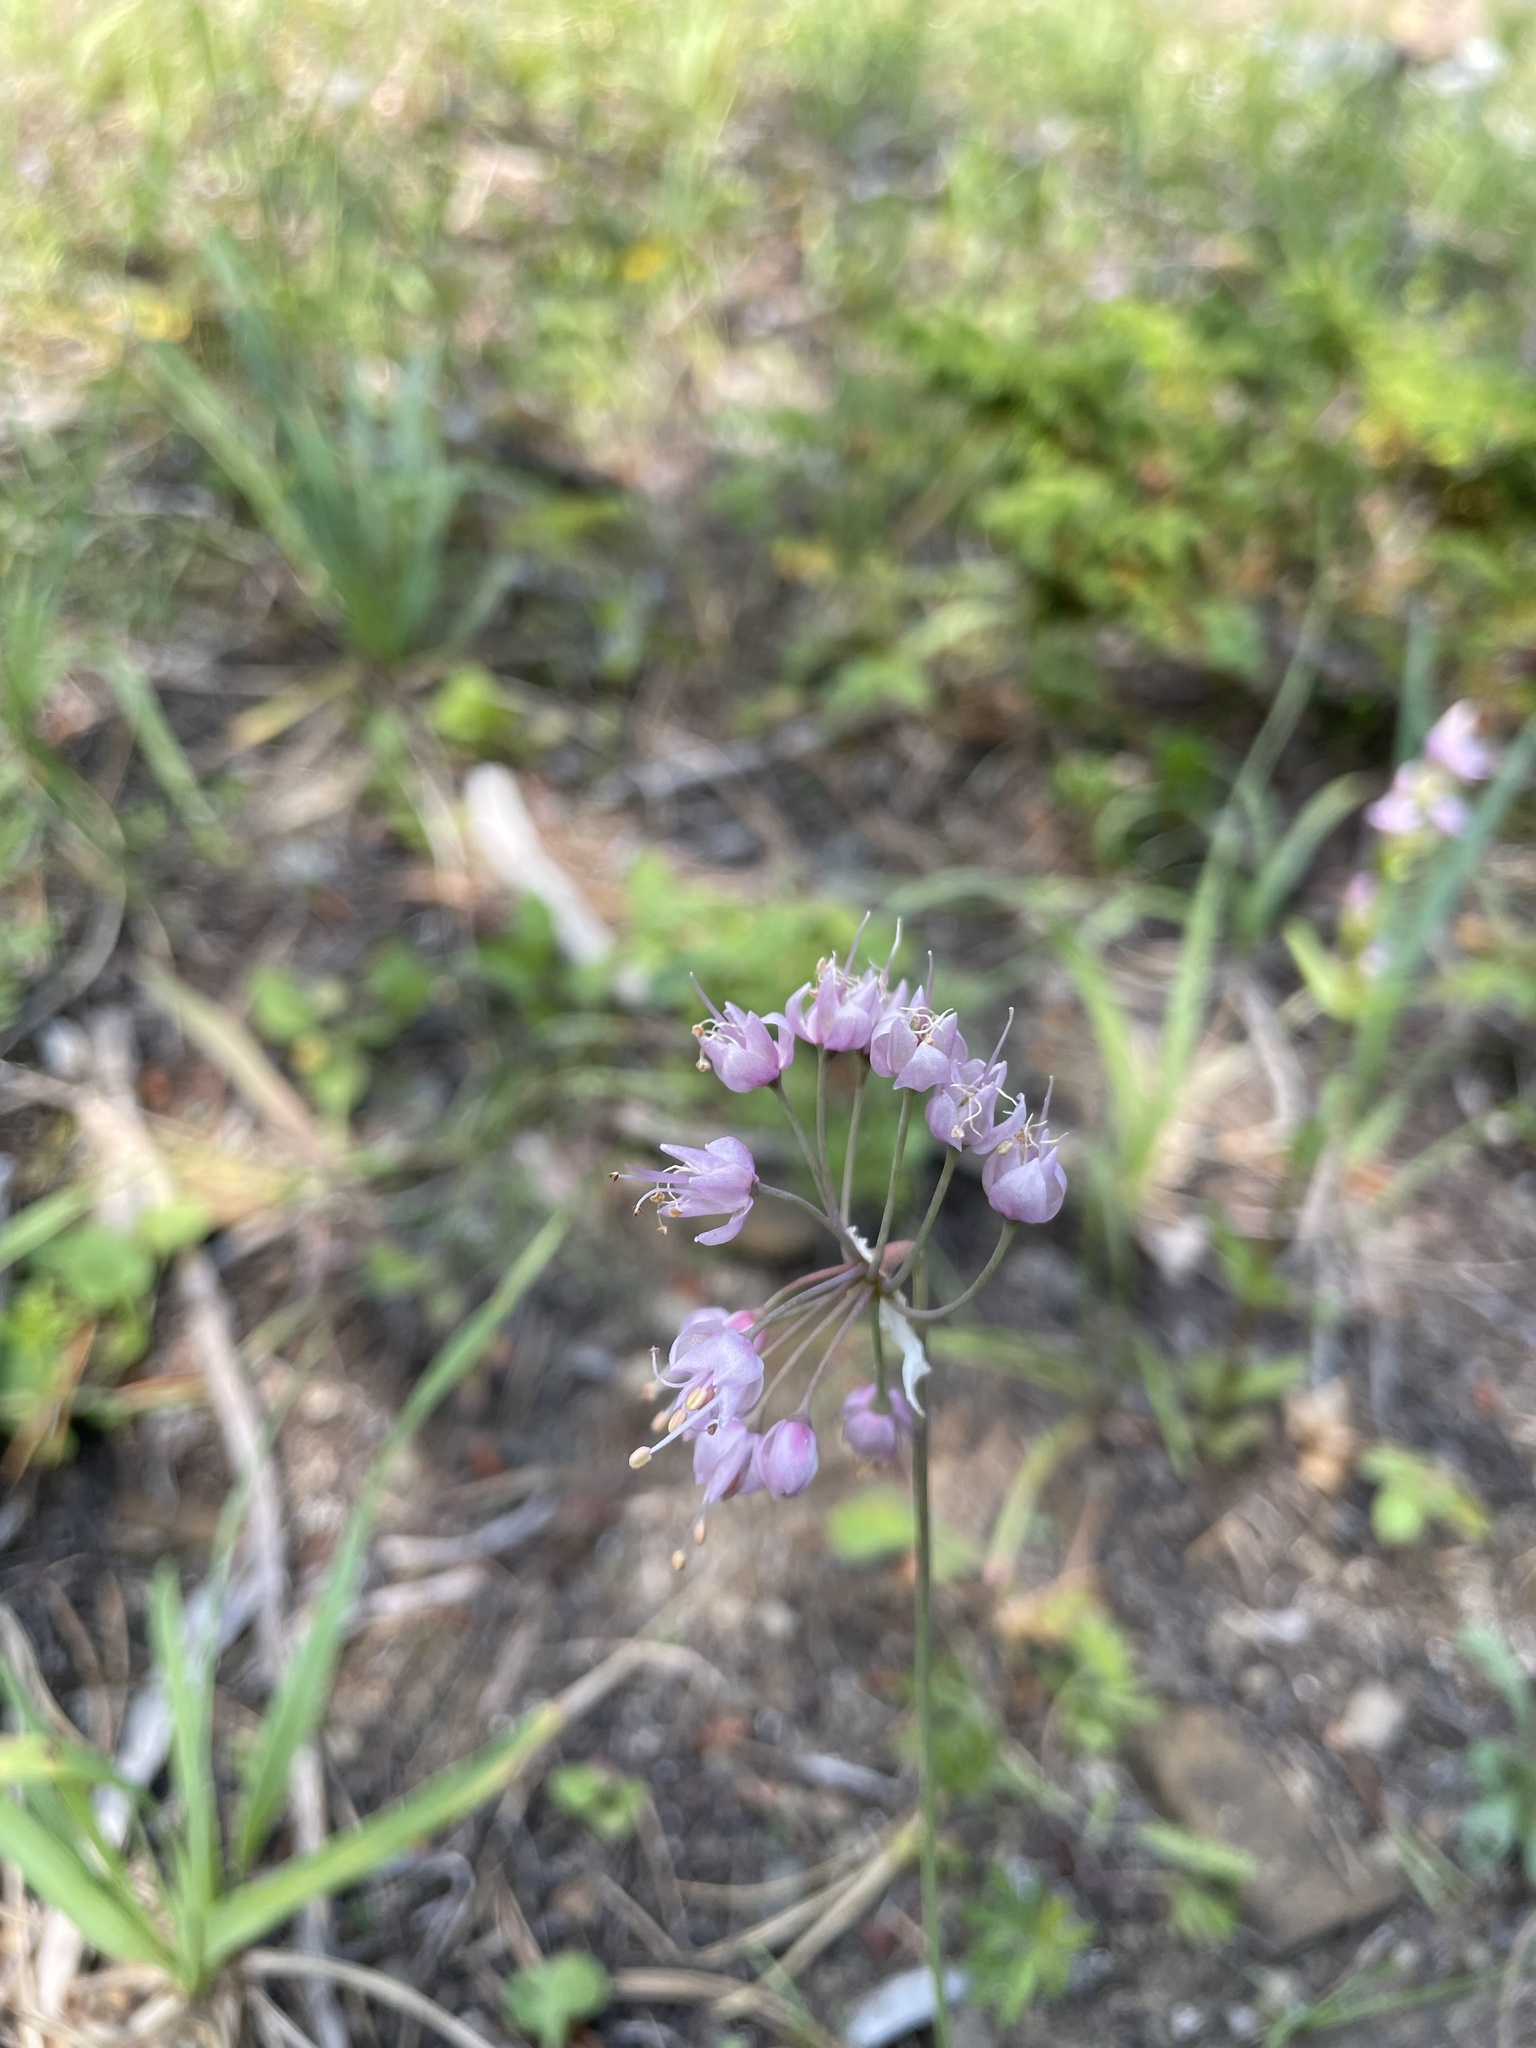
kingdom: Plantae
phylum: Tracheophyta
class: Liliopsida
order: Asparagales
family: Amaryllidaceae
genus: Allium
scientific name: Allium cernuum
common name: Nodding onion
